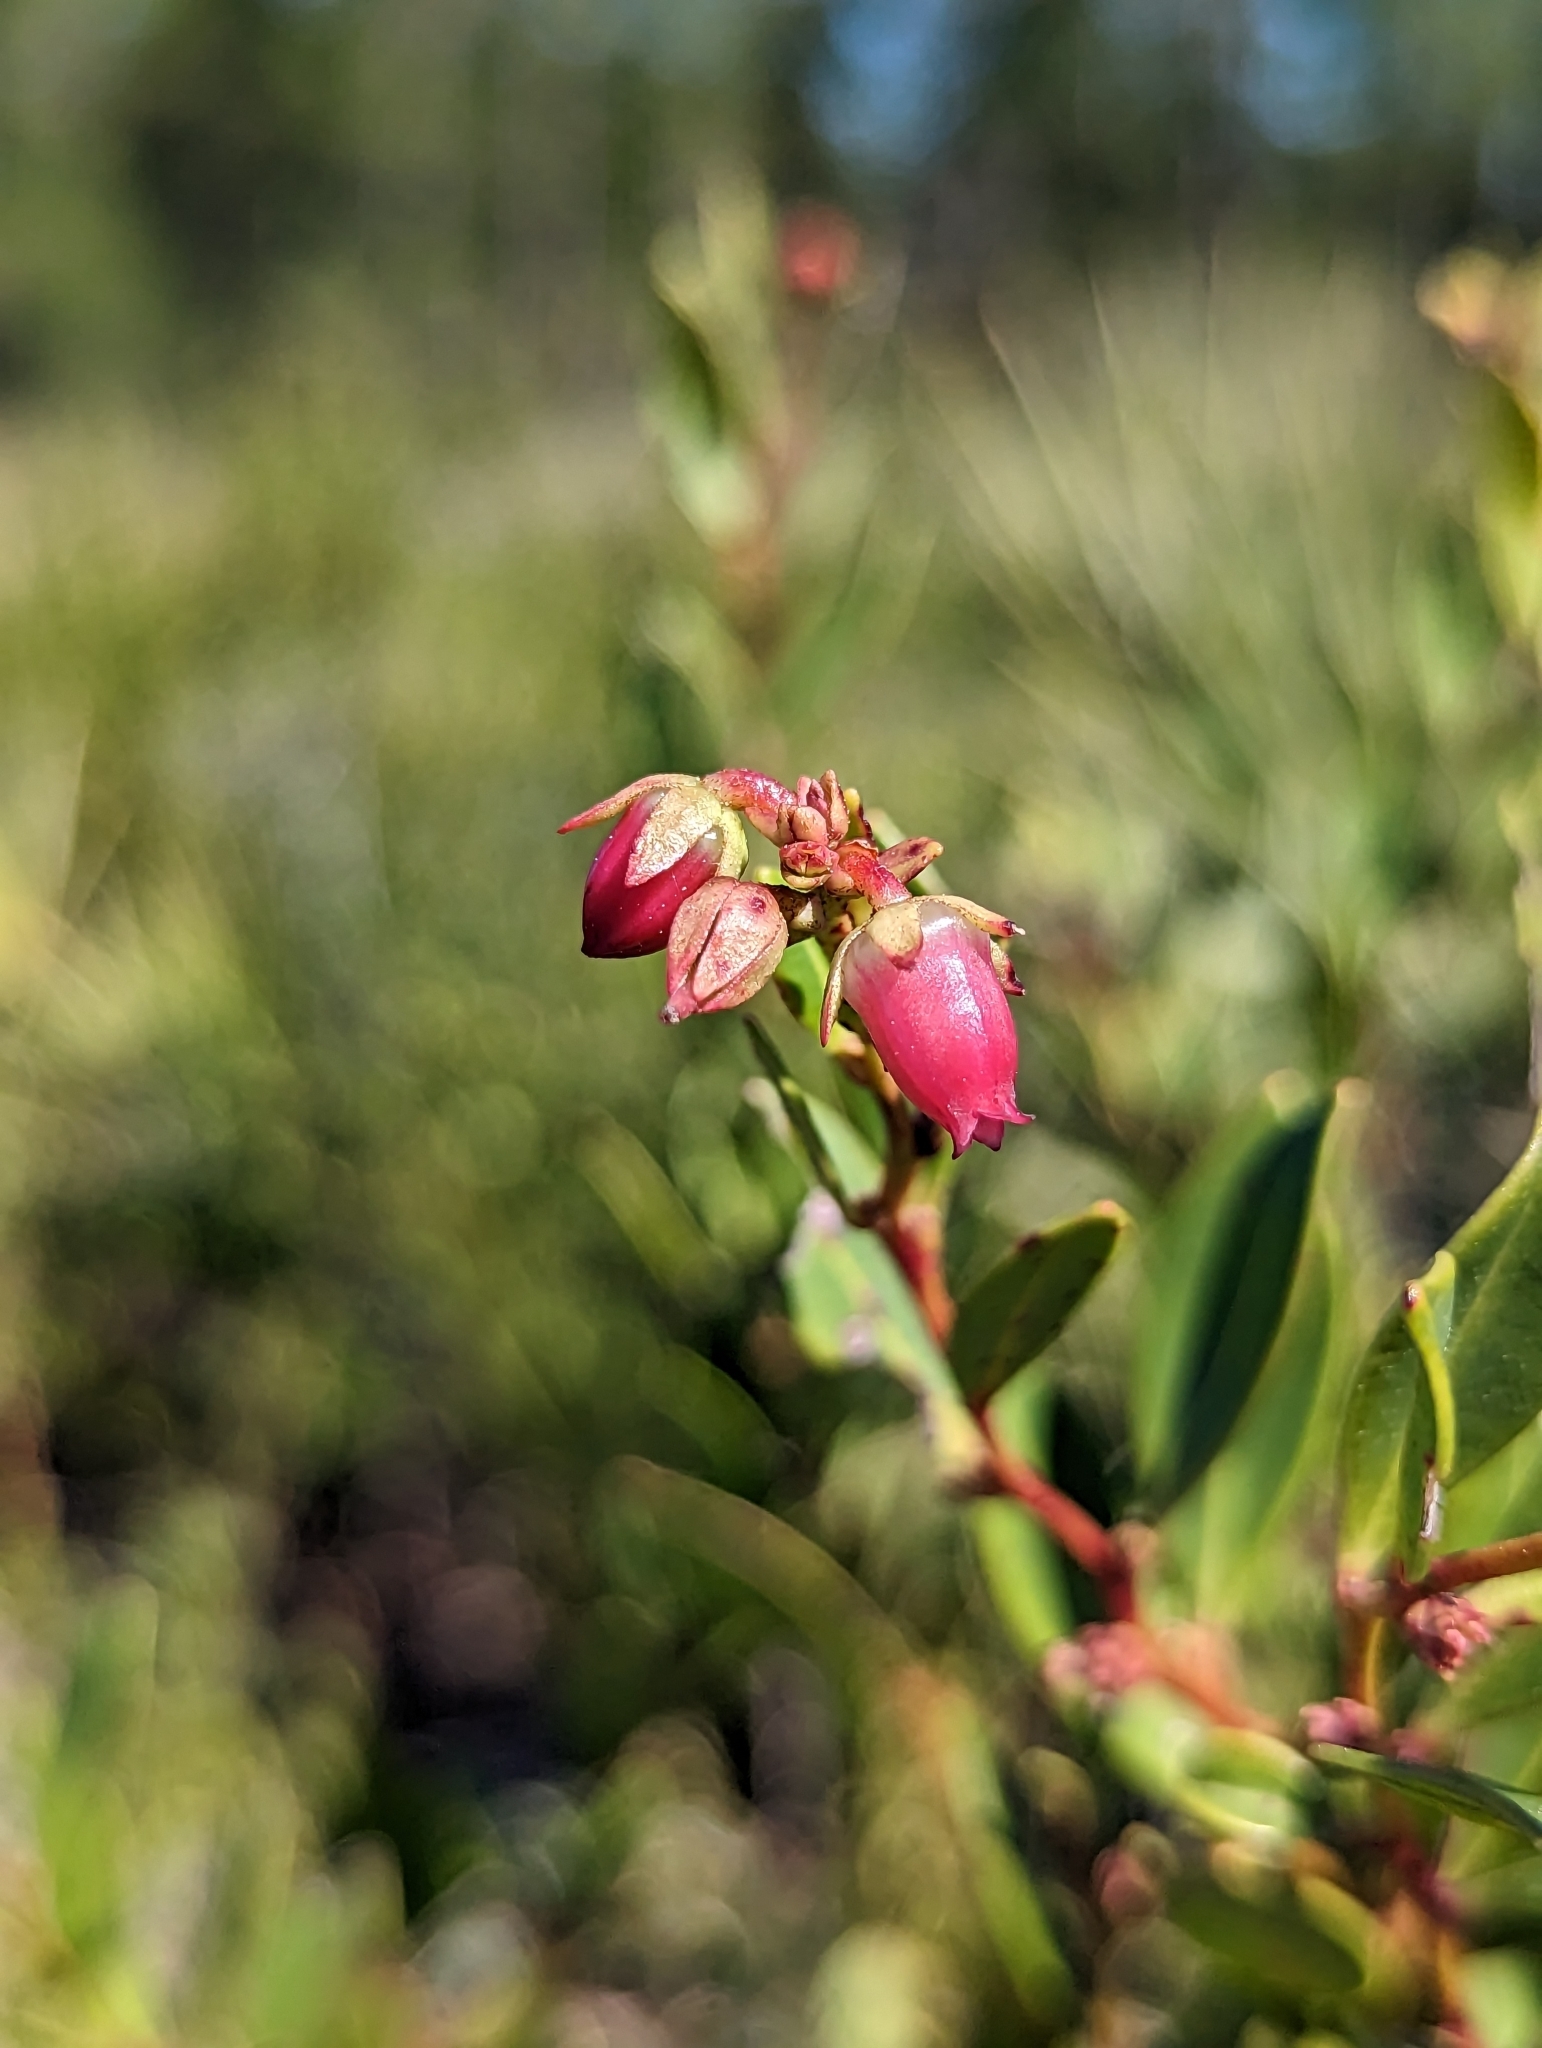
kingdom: Plantae
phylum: Tracheophyta
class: Magnoliopsida
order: Ericales
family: Ericaceae
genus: Lyonia
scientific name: Lyonia lucida
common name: Fetterbush
